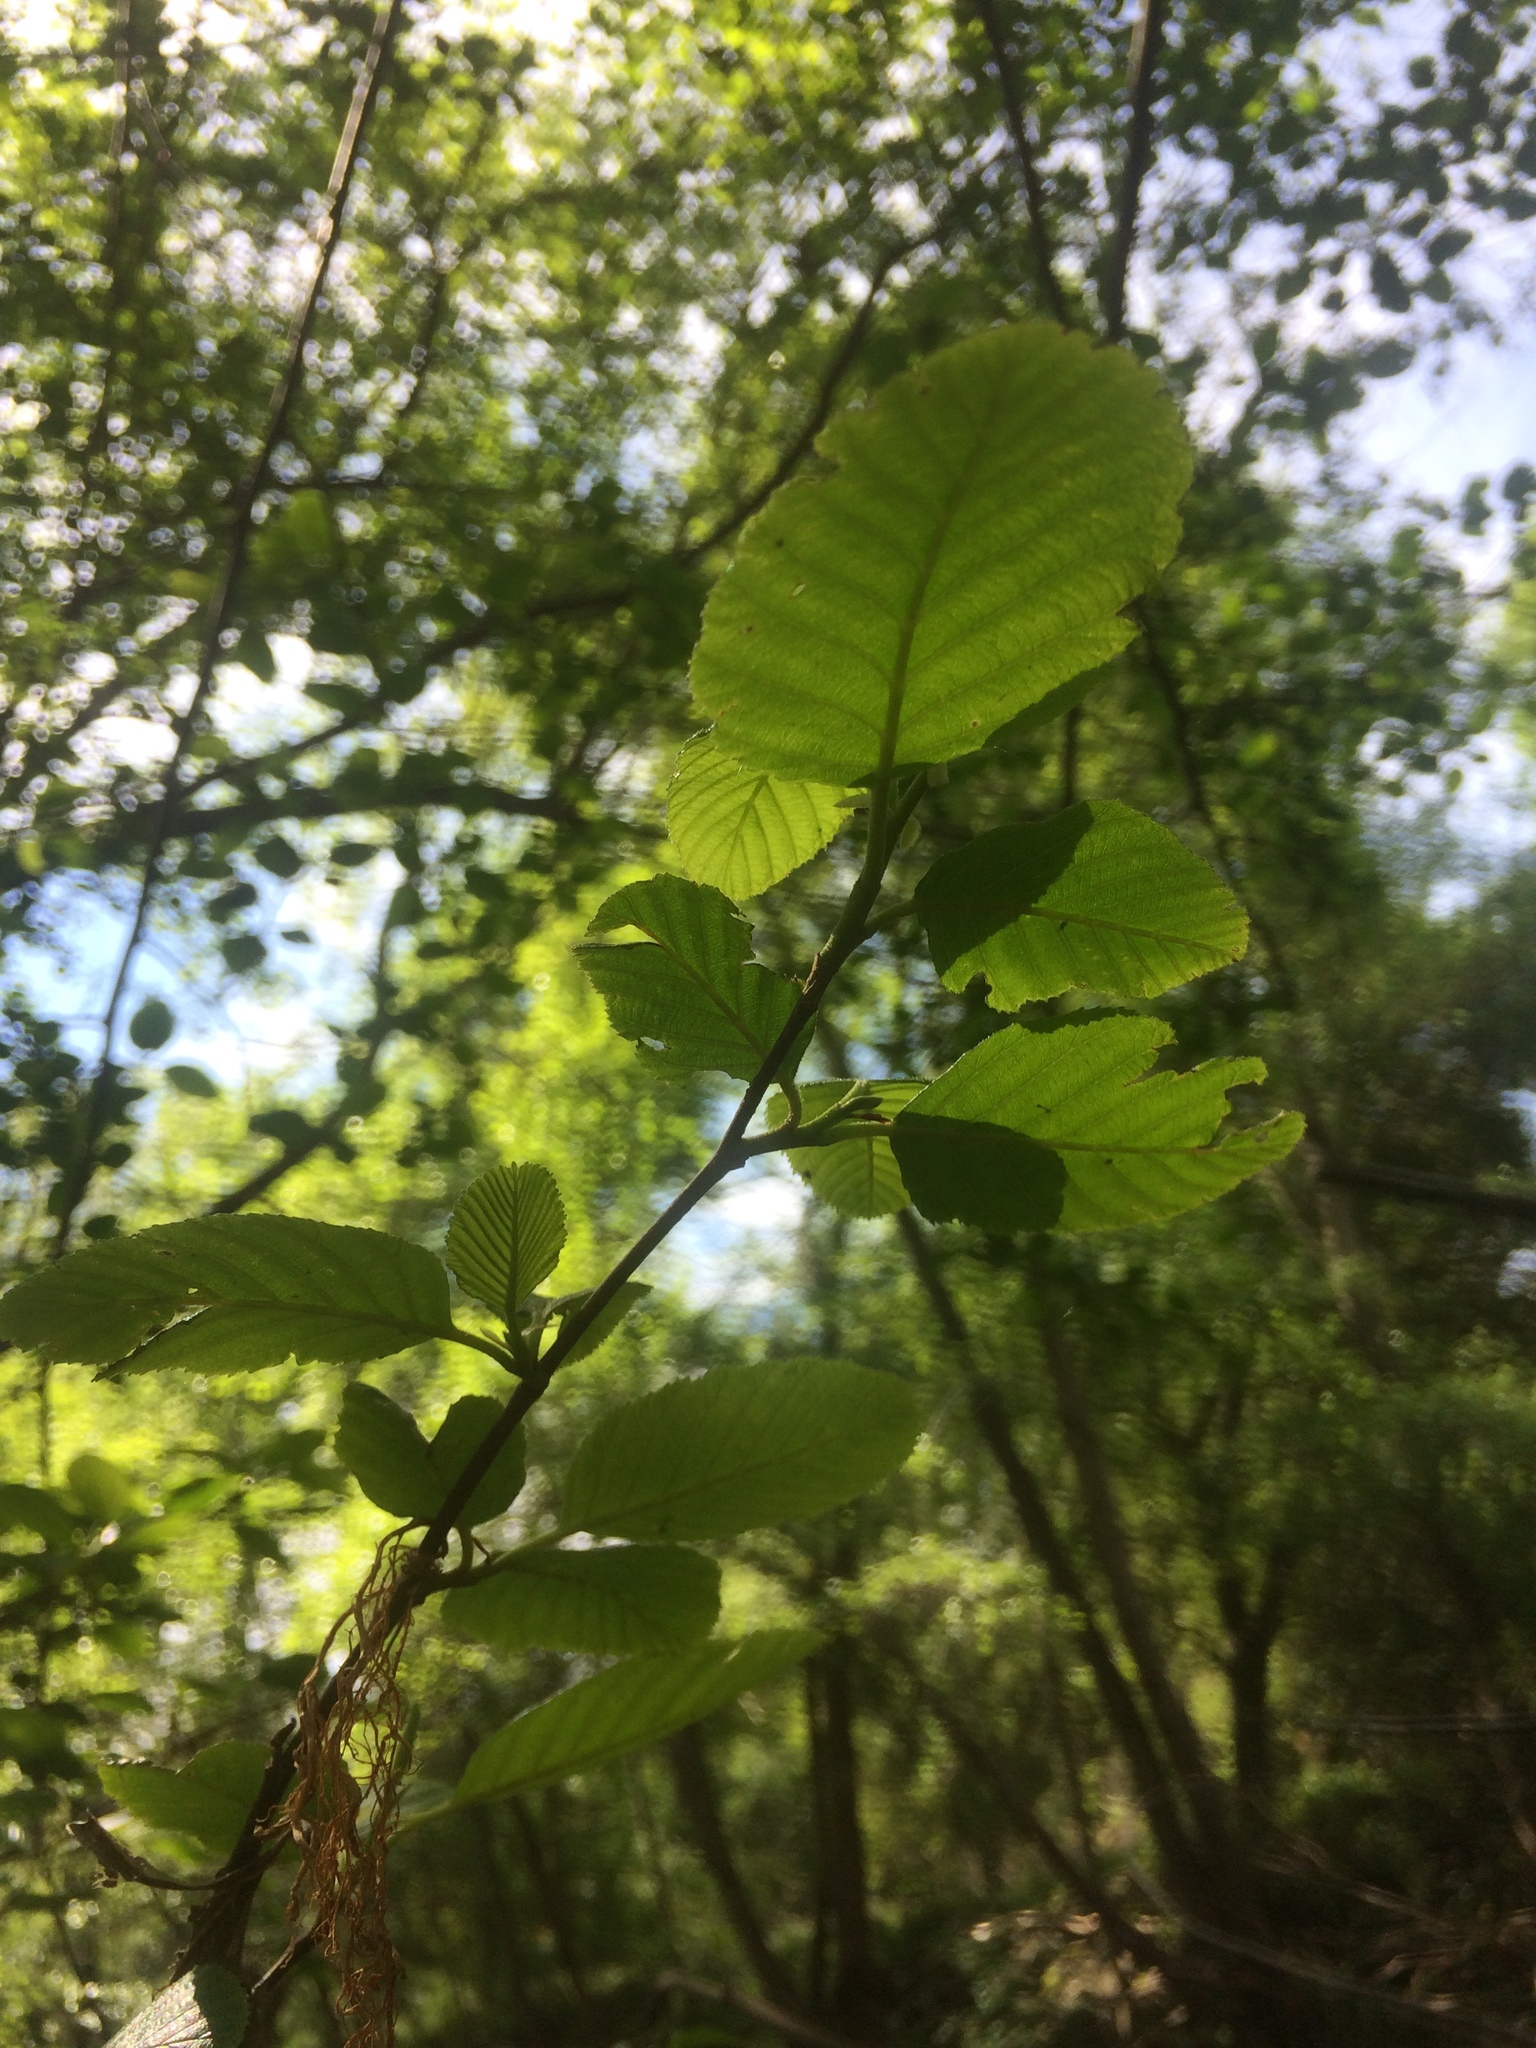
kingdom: Plantae
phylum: Tracheophyta
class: Magnoliopsida
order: Fagales
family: Betulaceae
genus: Alnus
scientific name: Alnus rhombifolia
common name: California alder
